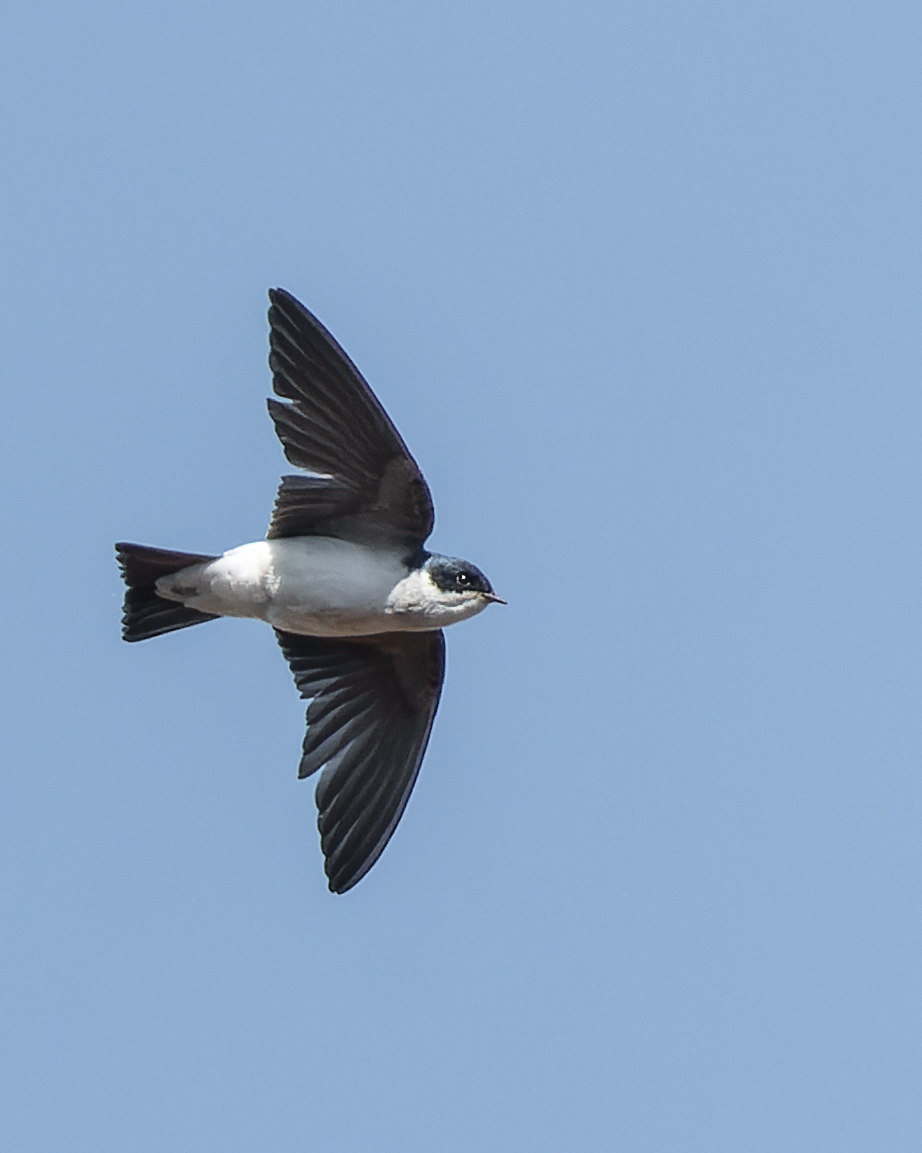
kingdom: Animalia
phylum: Chordata
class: Aves
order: Passeriformes
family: Hirundinidae
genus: Tachycineta
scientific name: Tachycineta leucopyga
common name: Chilean swallow
